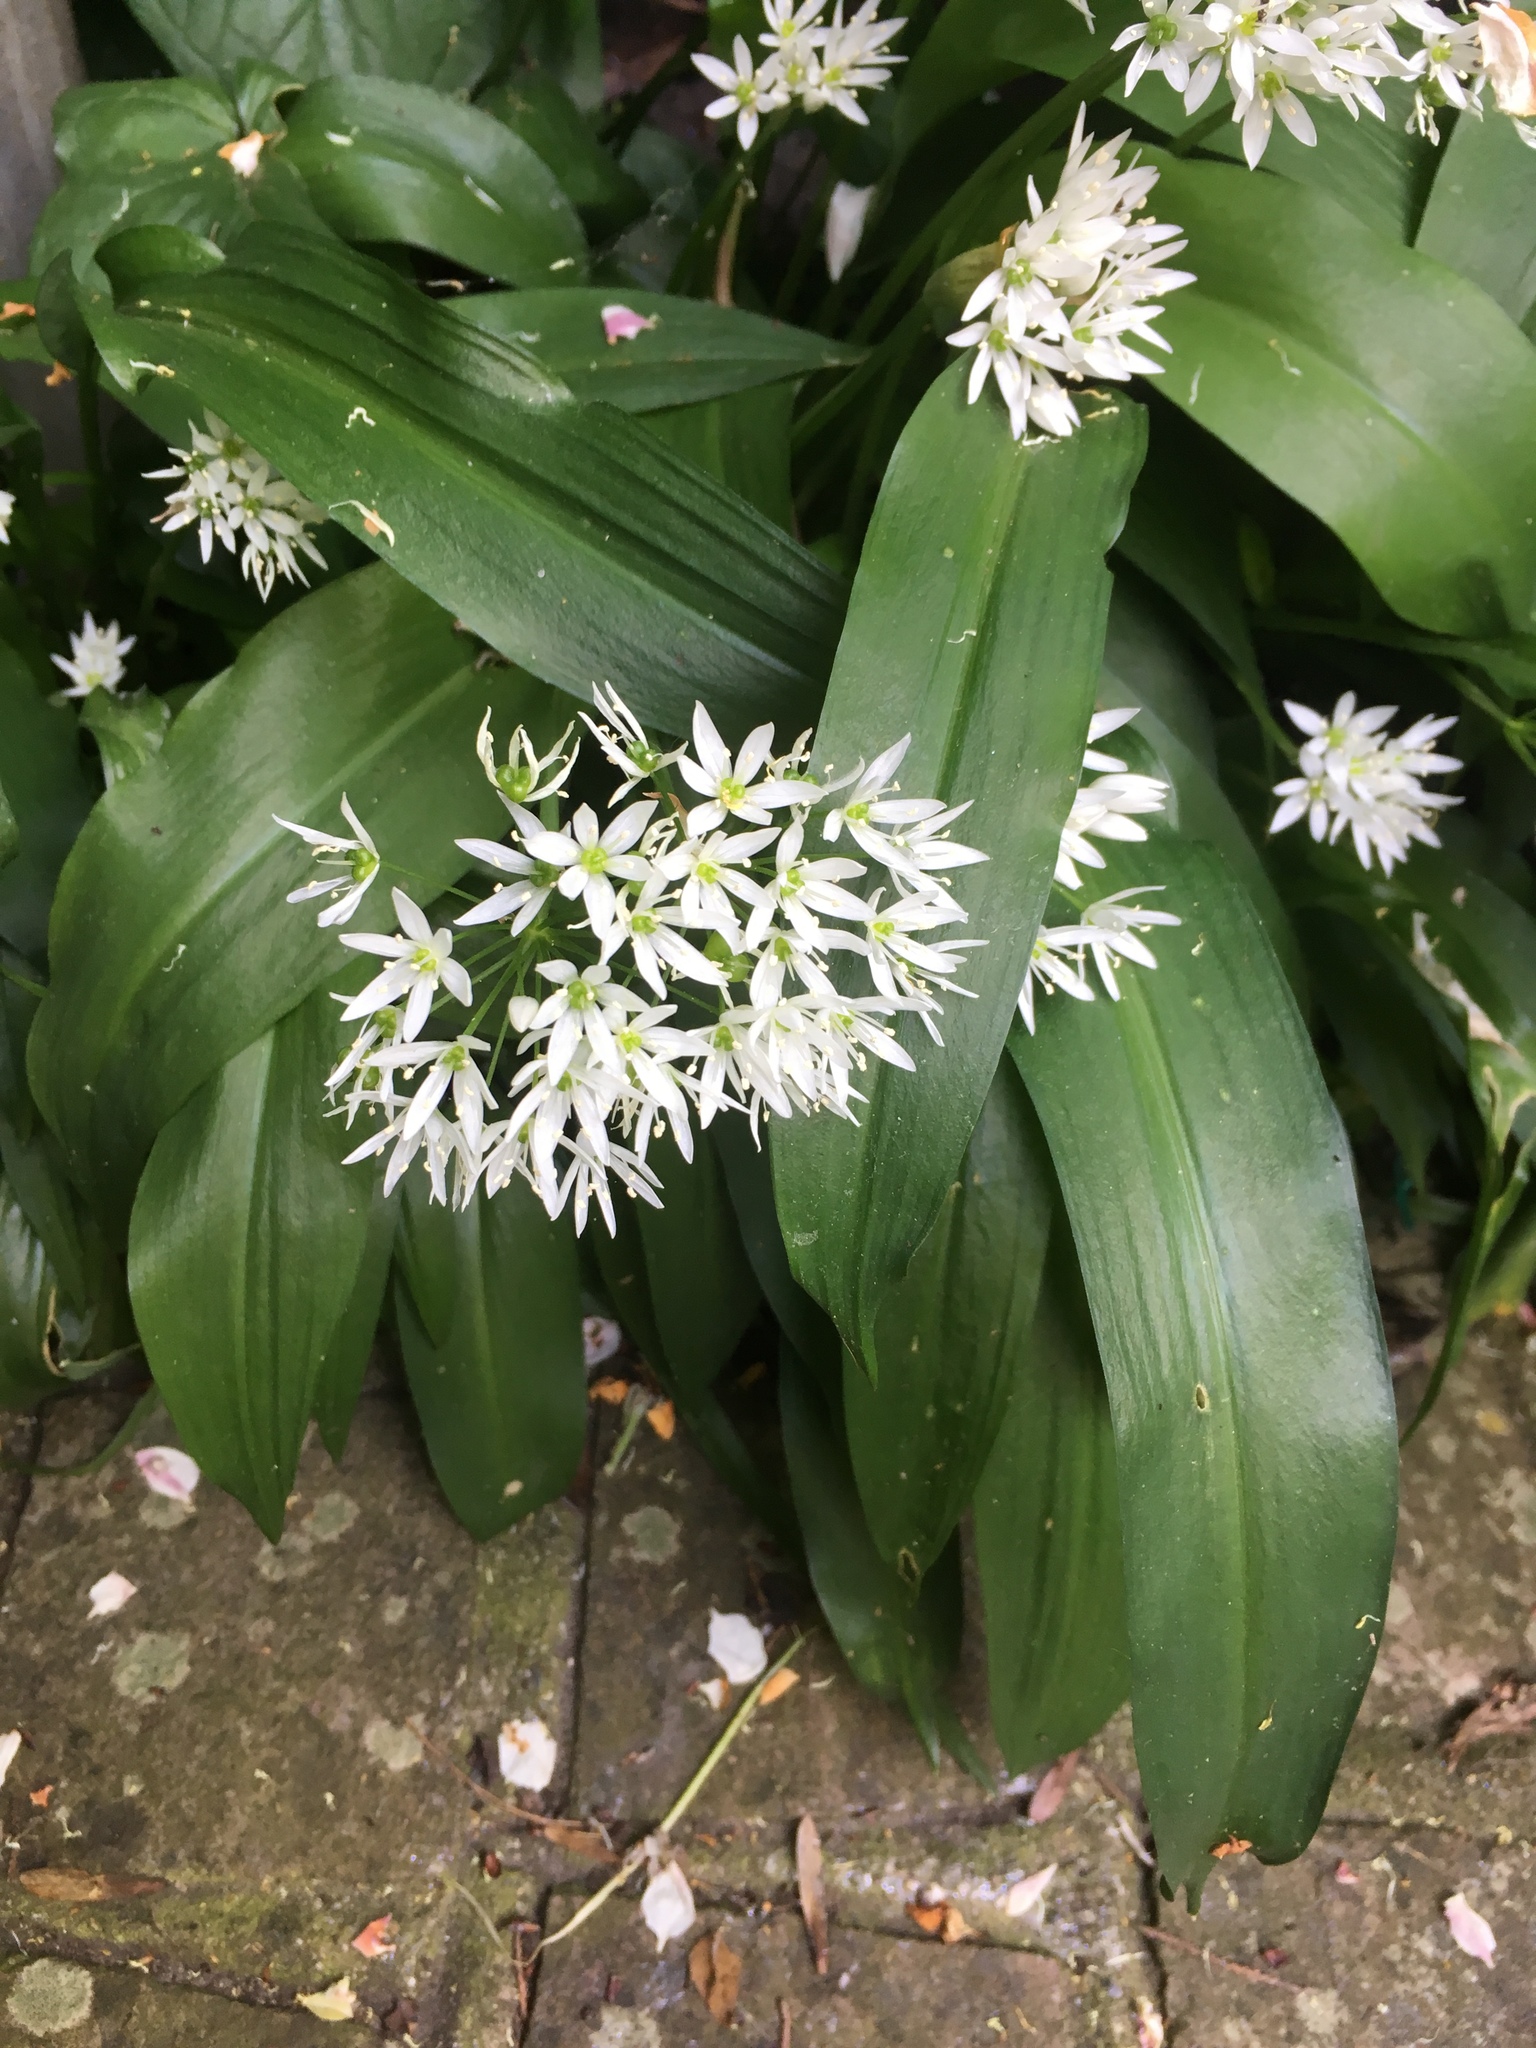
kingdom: Plantae
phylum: Tracheophyta
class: Liliopsida
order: Asparagales
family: Amaryllidaceae
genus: Allium
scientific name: Allium ursinum
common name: Ramsons
